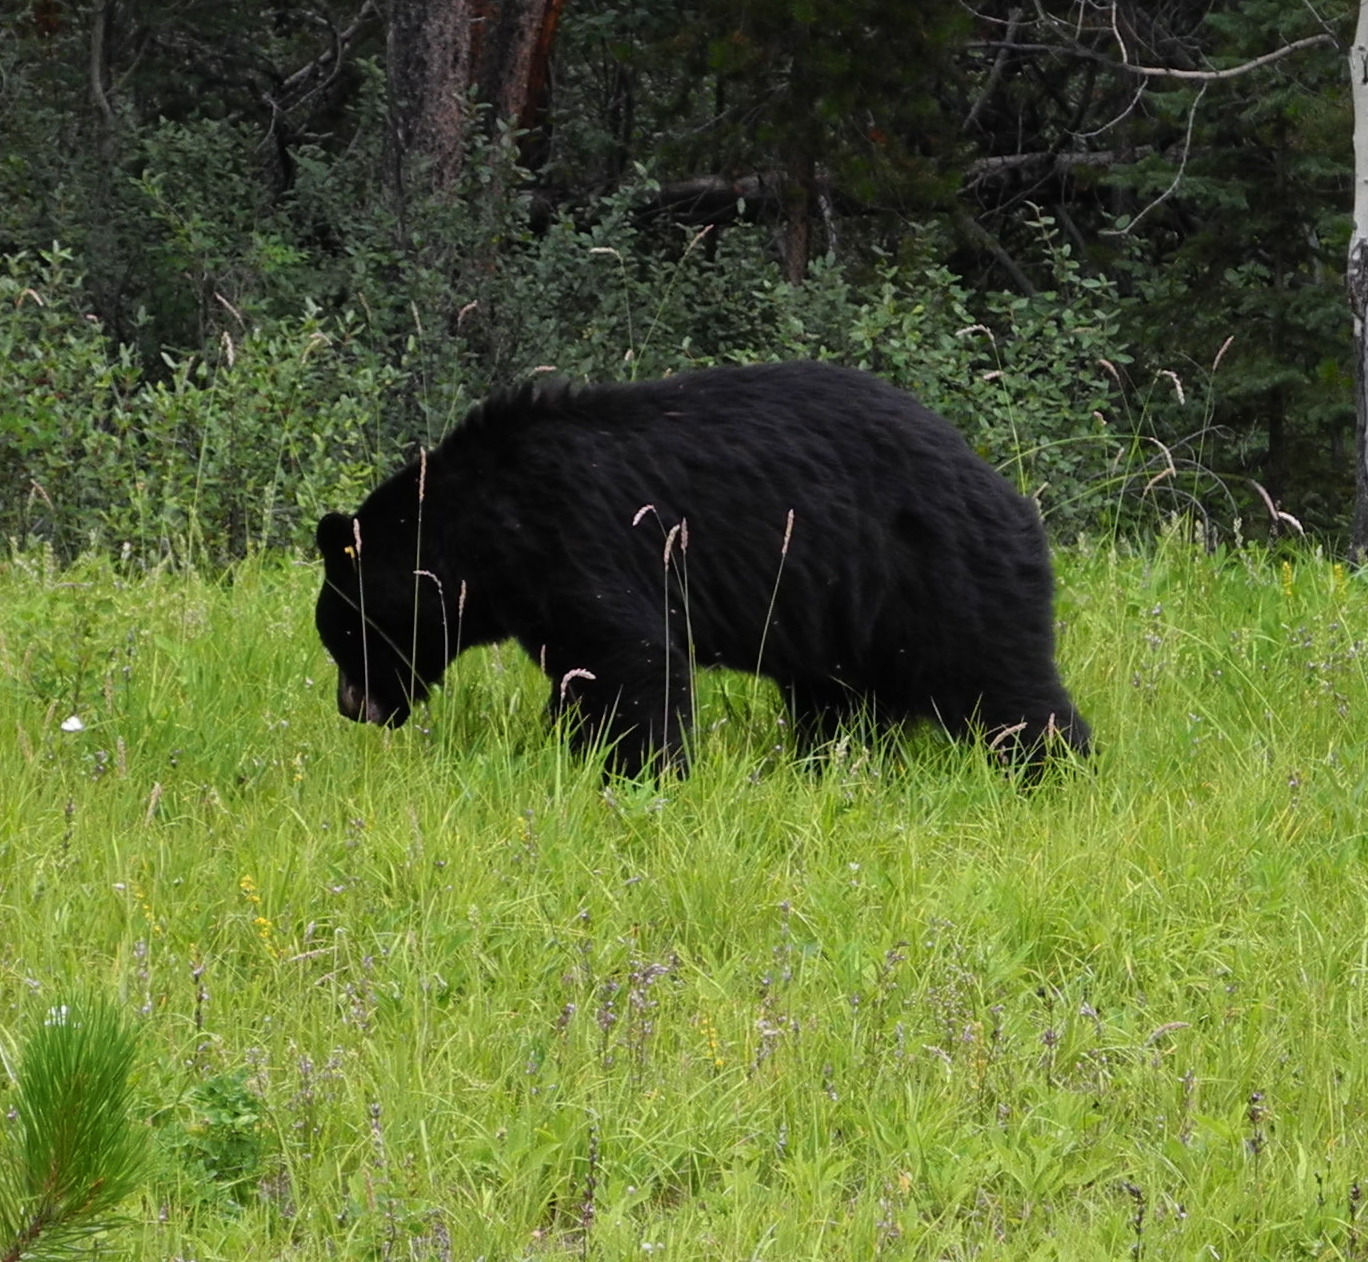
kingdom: Animalia
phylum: Chordata
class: Mammalia
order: Carnivora
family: Ursidae
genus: Ursus
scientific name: Ursus americanus
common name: American black bear
